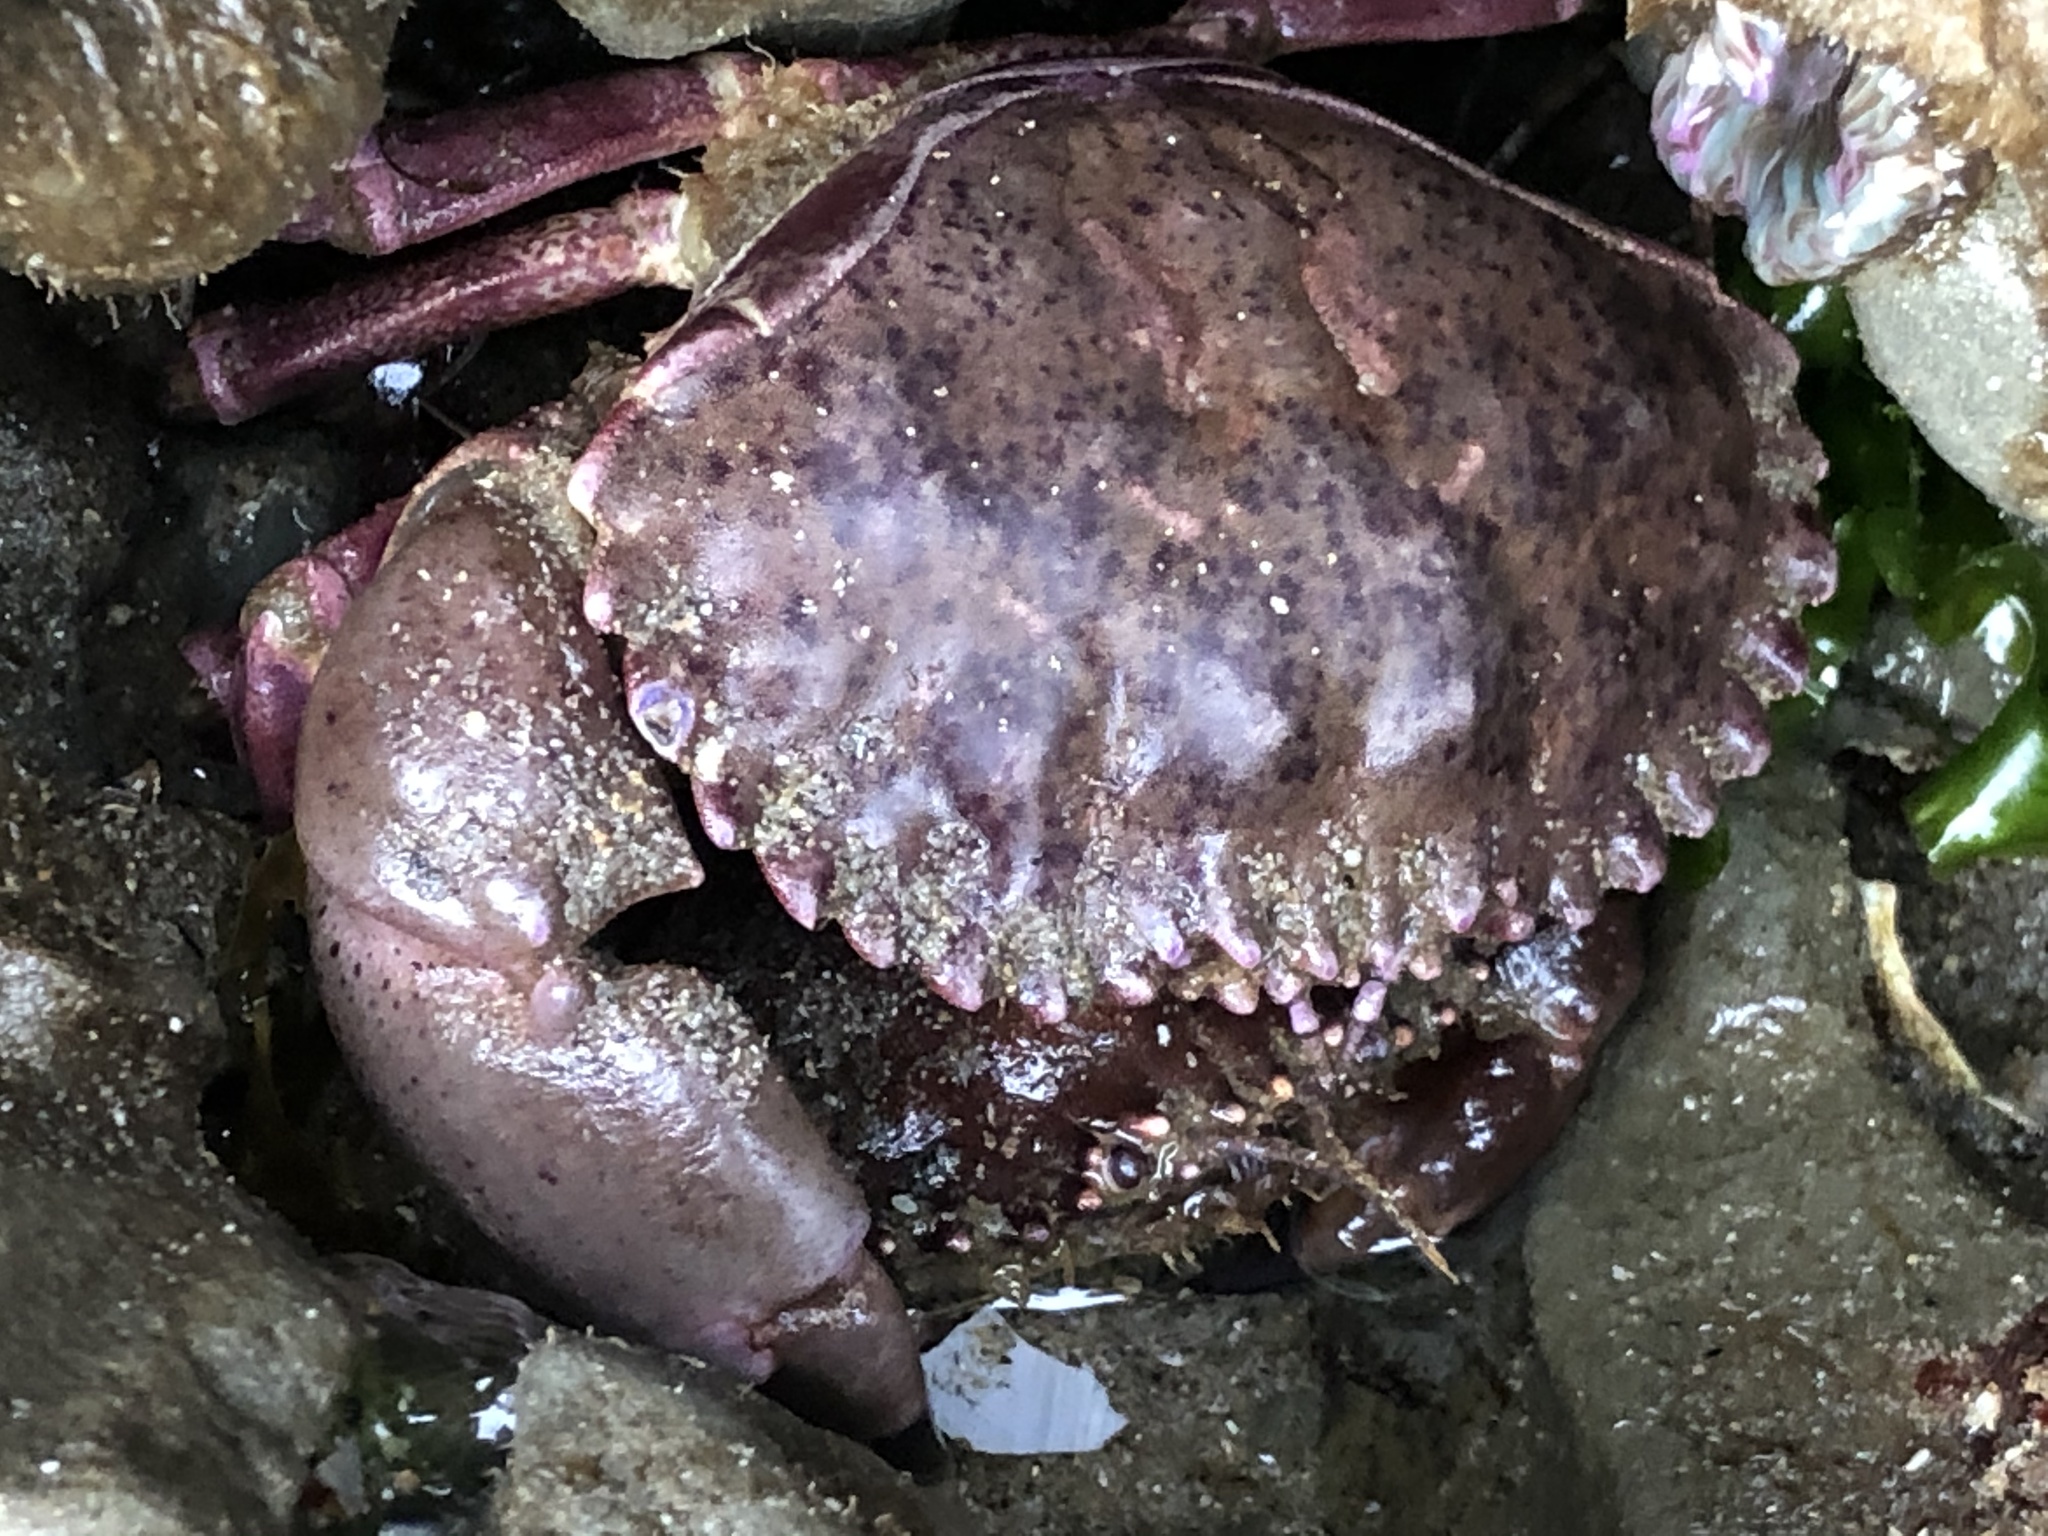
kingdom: Animalia
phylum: Arthropoda
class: Malacostraca
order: Decapoda
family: Cancridae
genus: Romaleon
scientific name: Romaleon antennarium
